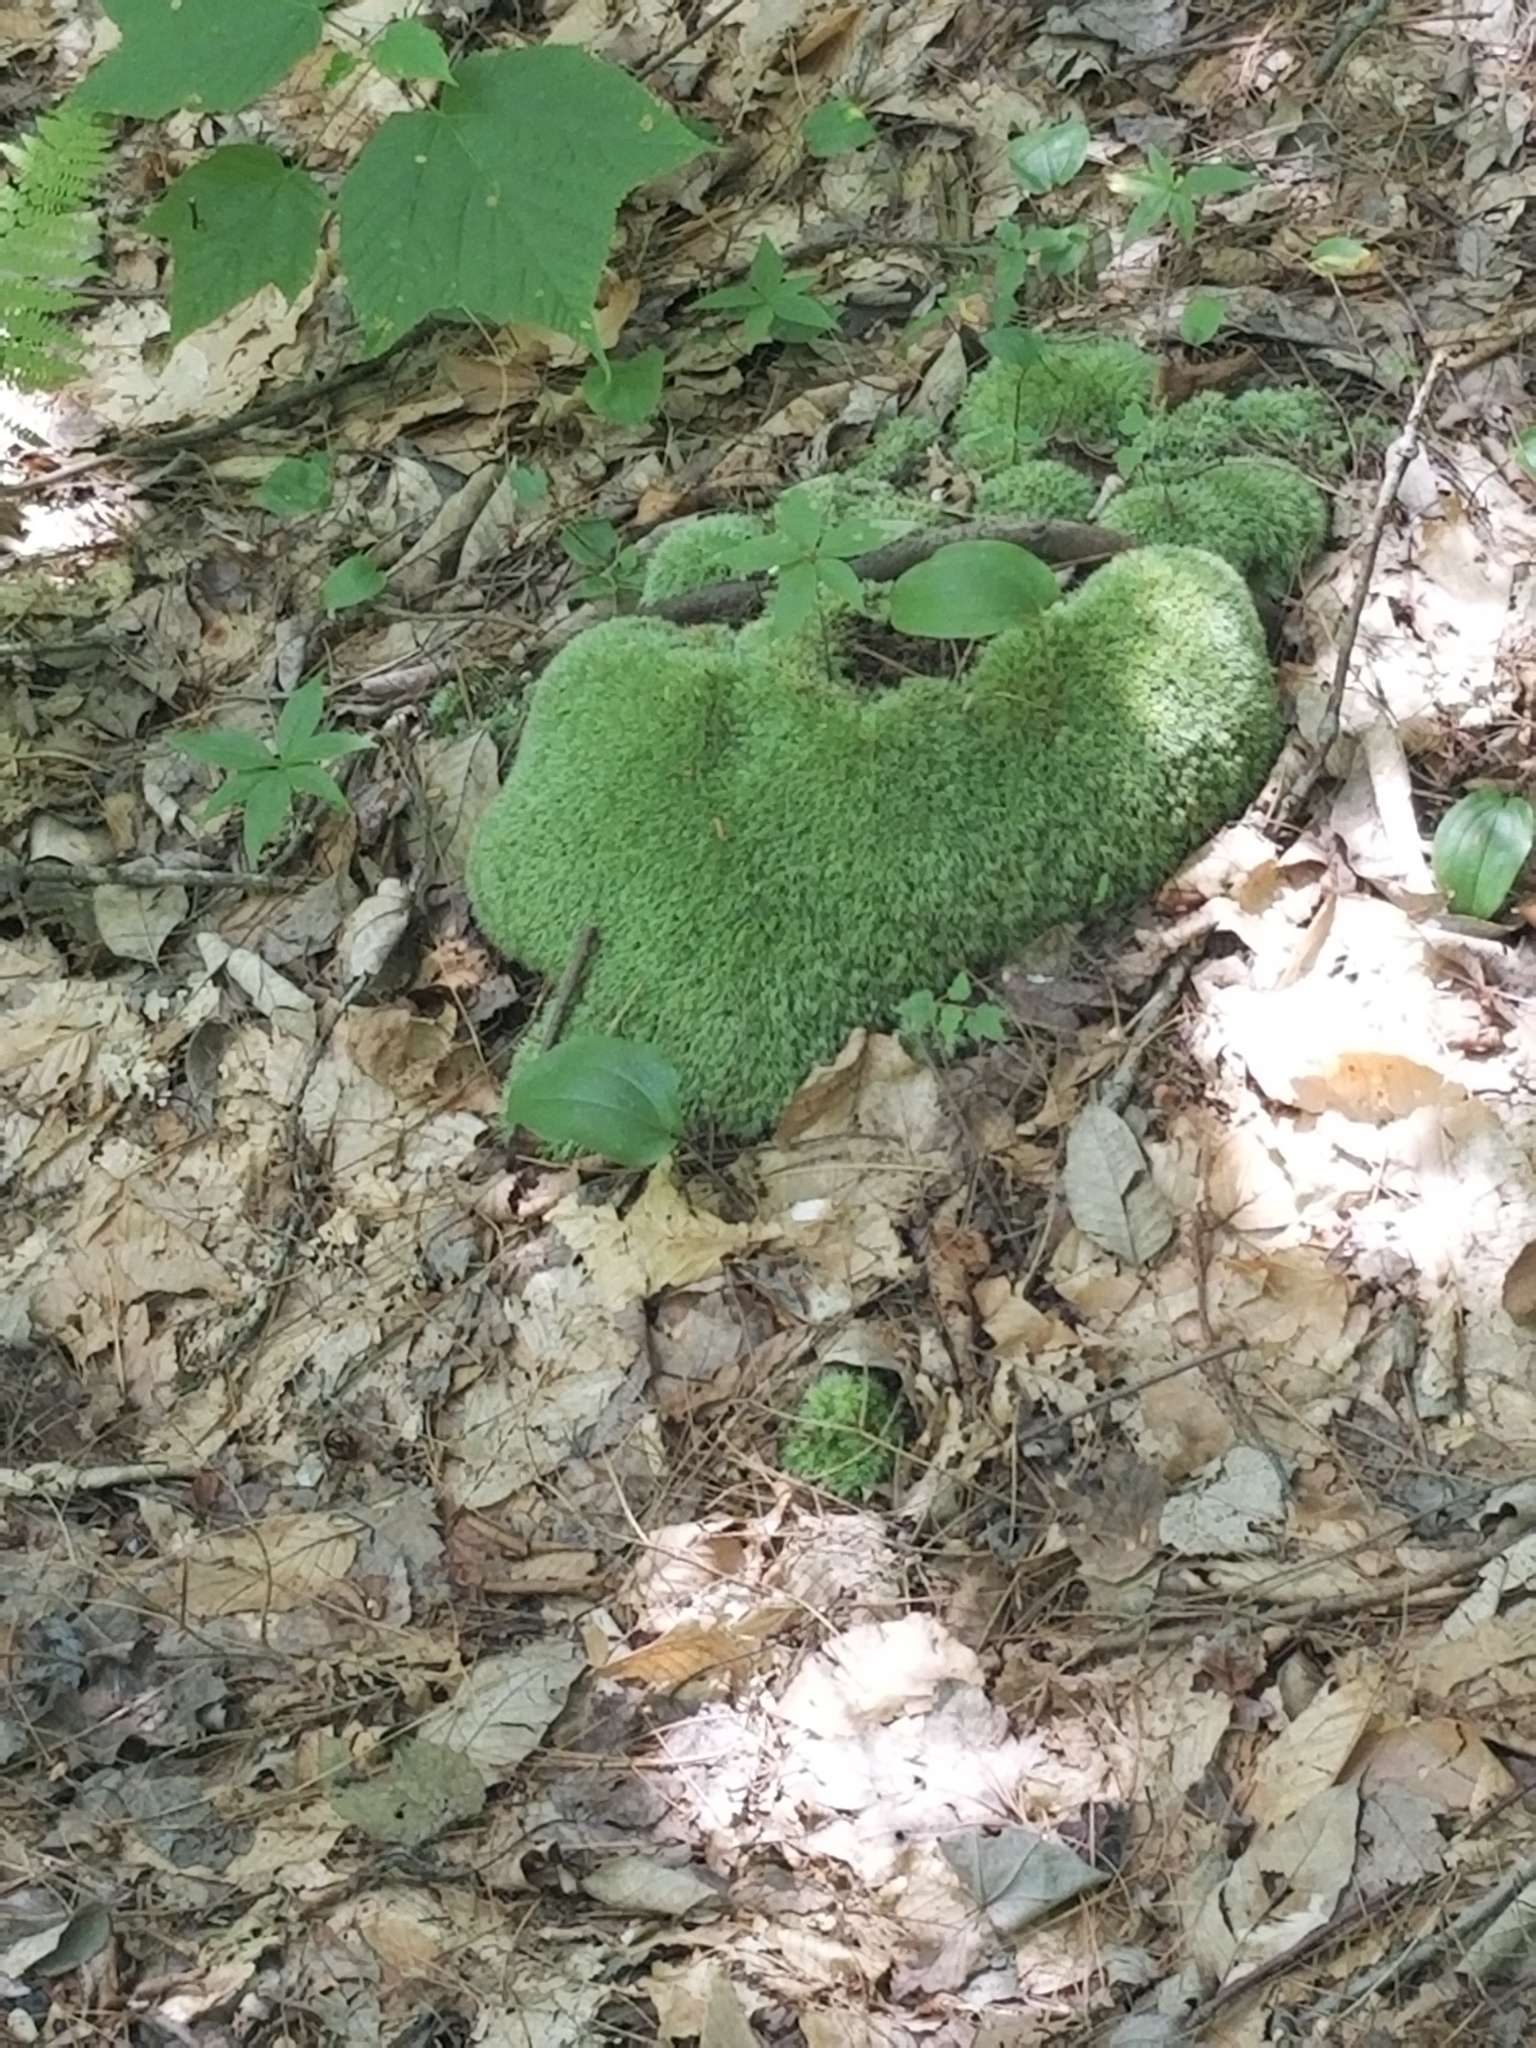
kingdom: Plantae
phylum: Bryophyta
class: Bryopsida
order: Dicranales
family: Leucobryaceae
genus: Leucobryum
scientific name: Leucobryum glaucum
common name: Large white-moss
